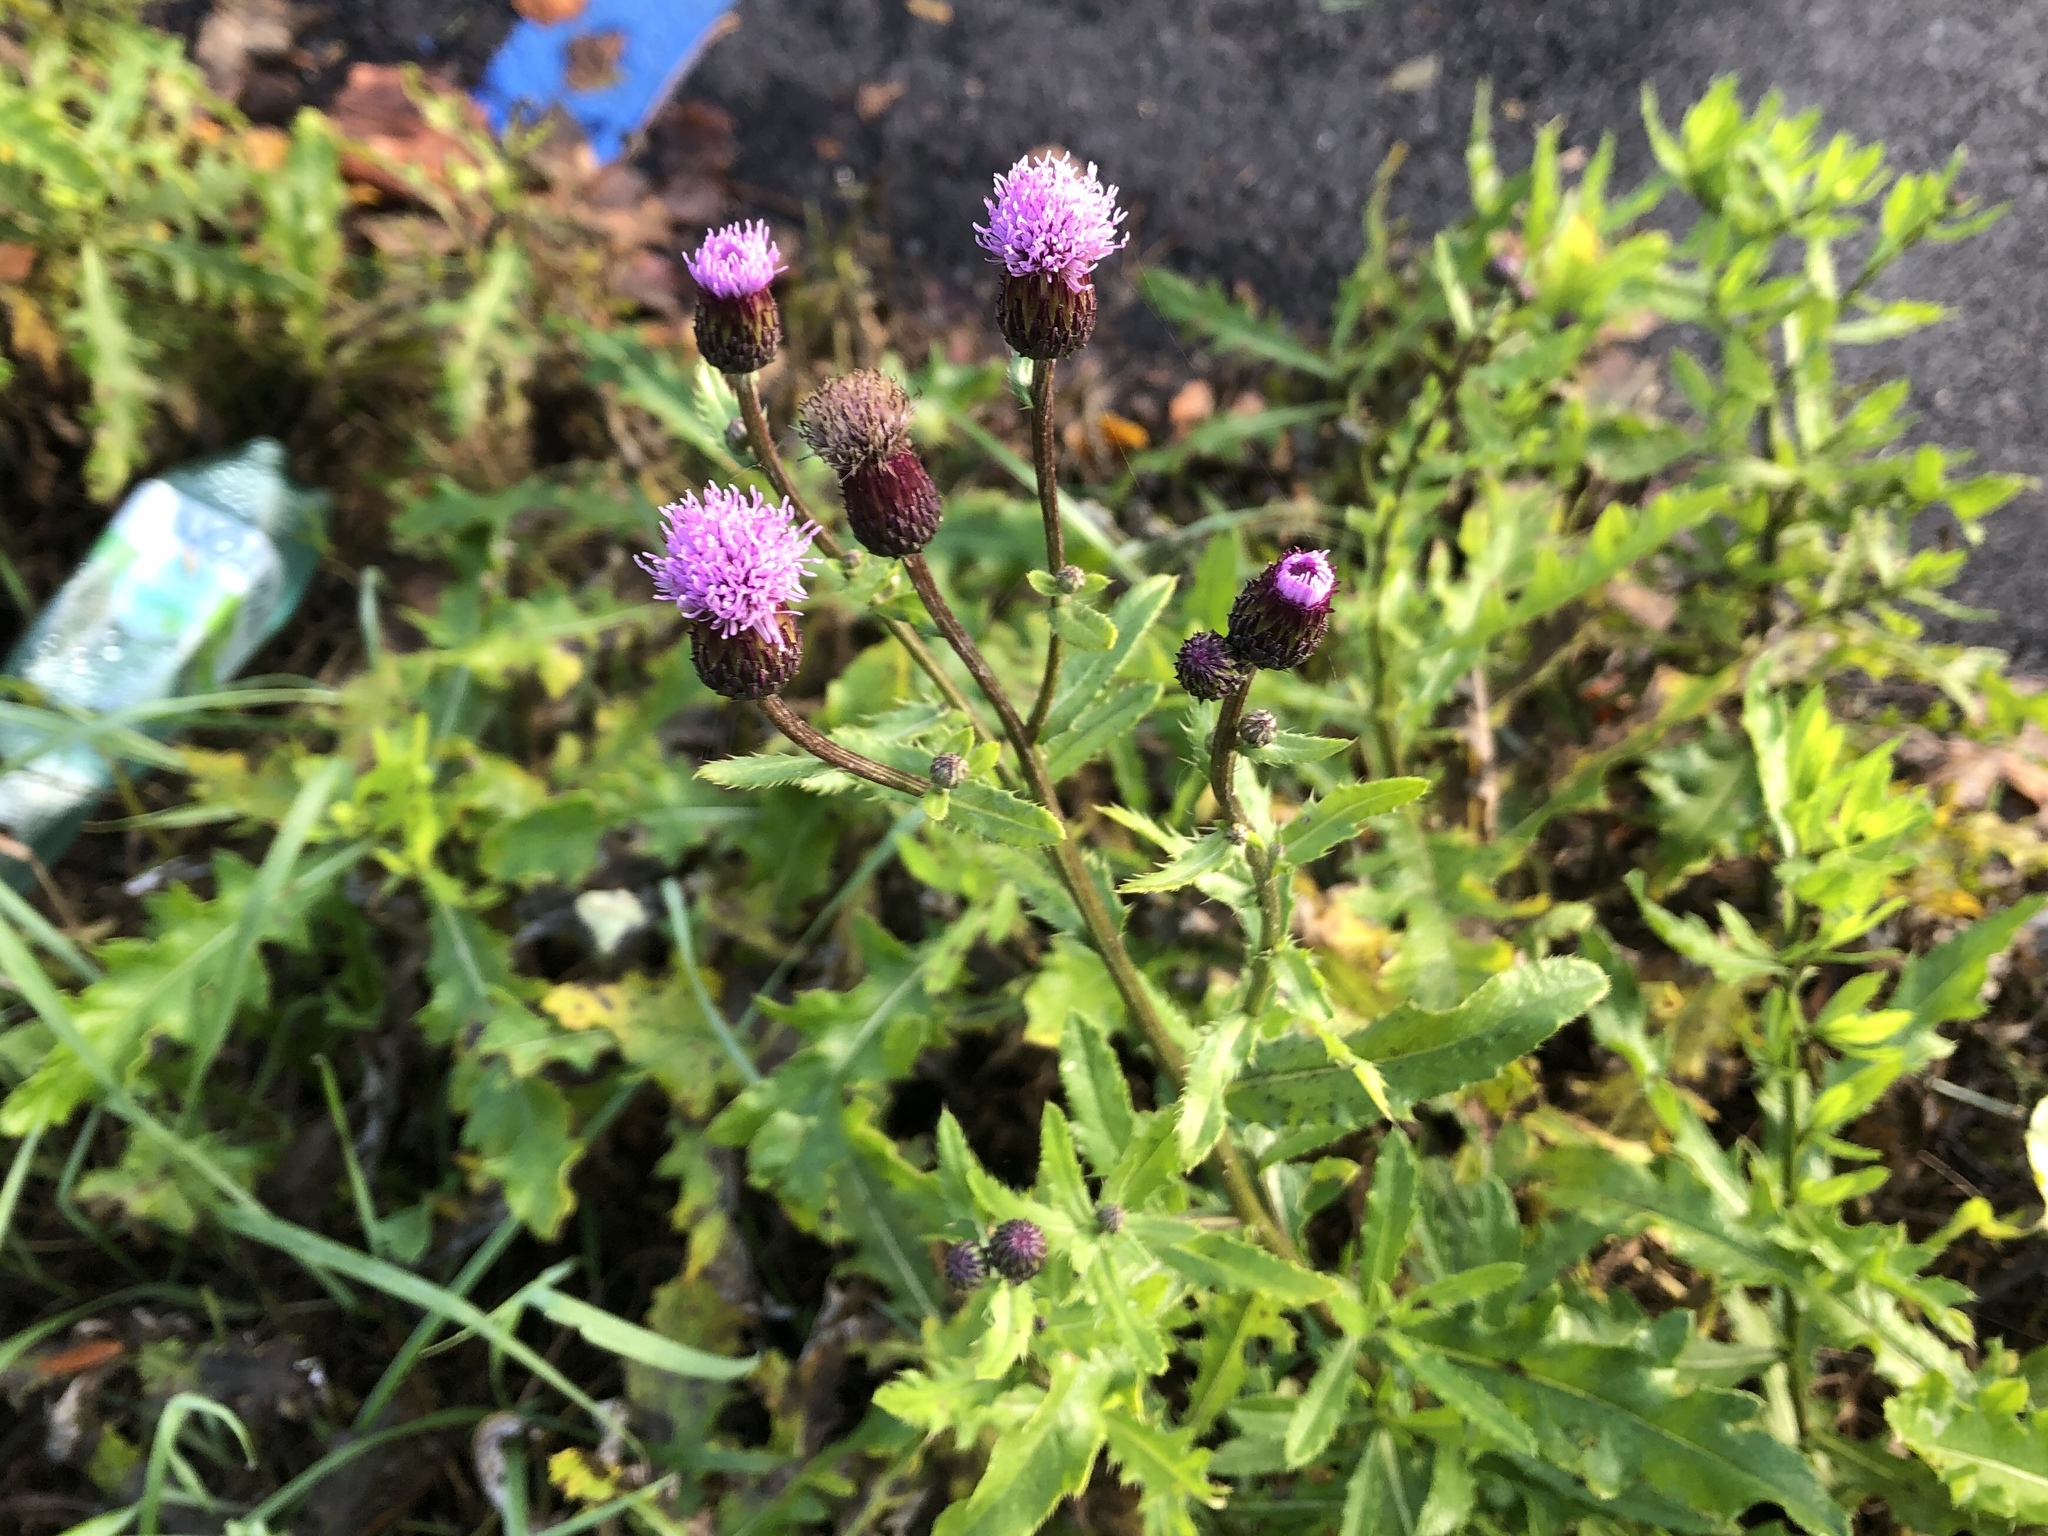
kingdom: Plantae
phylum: Tracheophyta
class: Magnoliopsida
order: Asterales
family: Asteraceae
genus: Cirsium
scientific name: Cirsium arvense
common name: Creeping thistle
